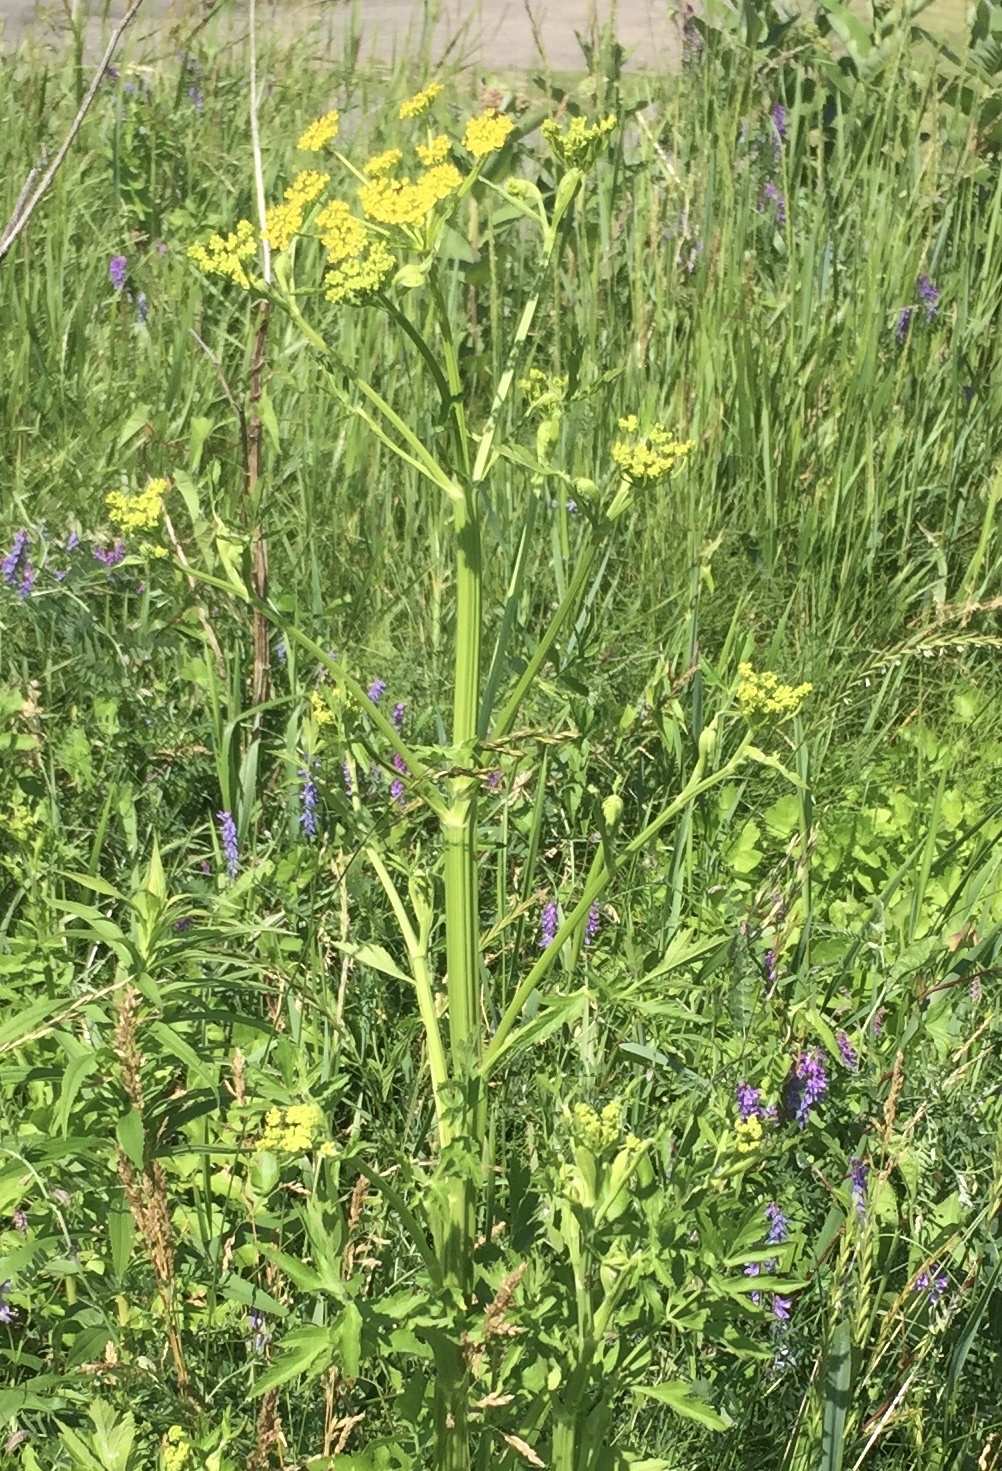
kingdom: Plantae
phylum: Tracheophyta
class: Magnoliopsida
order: Apiales
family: Apiaceae
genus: Pastinaca
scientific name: Pastinaca sativa
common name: Wild parsnip
